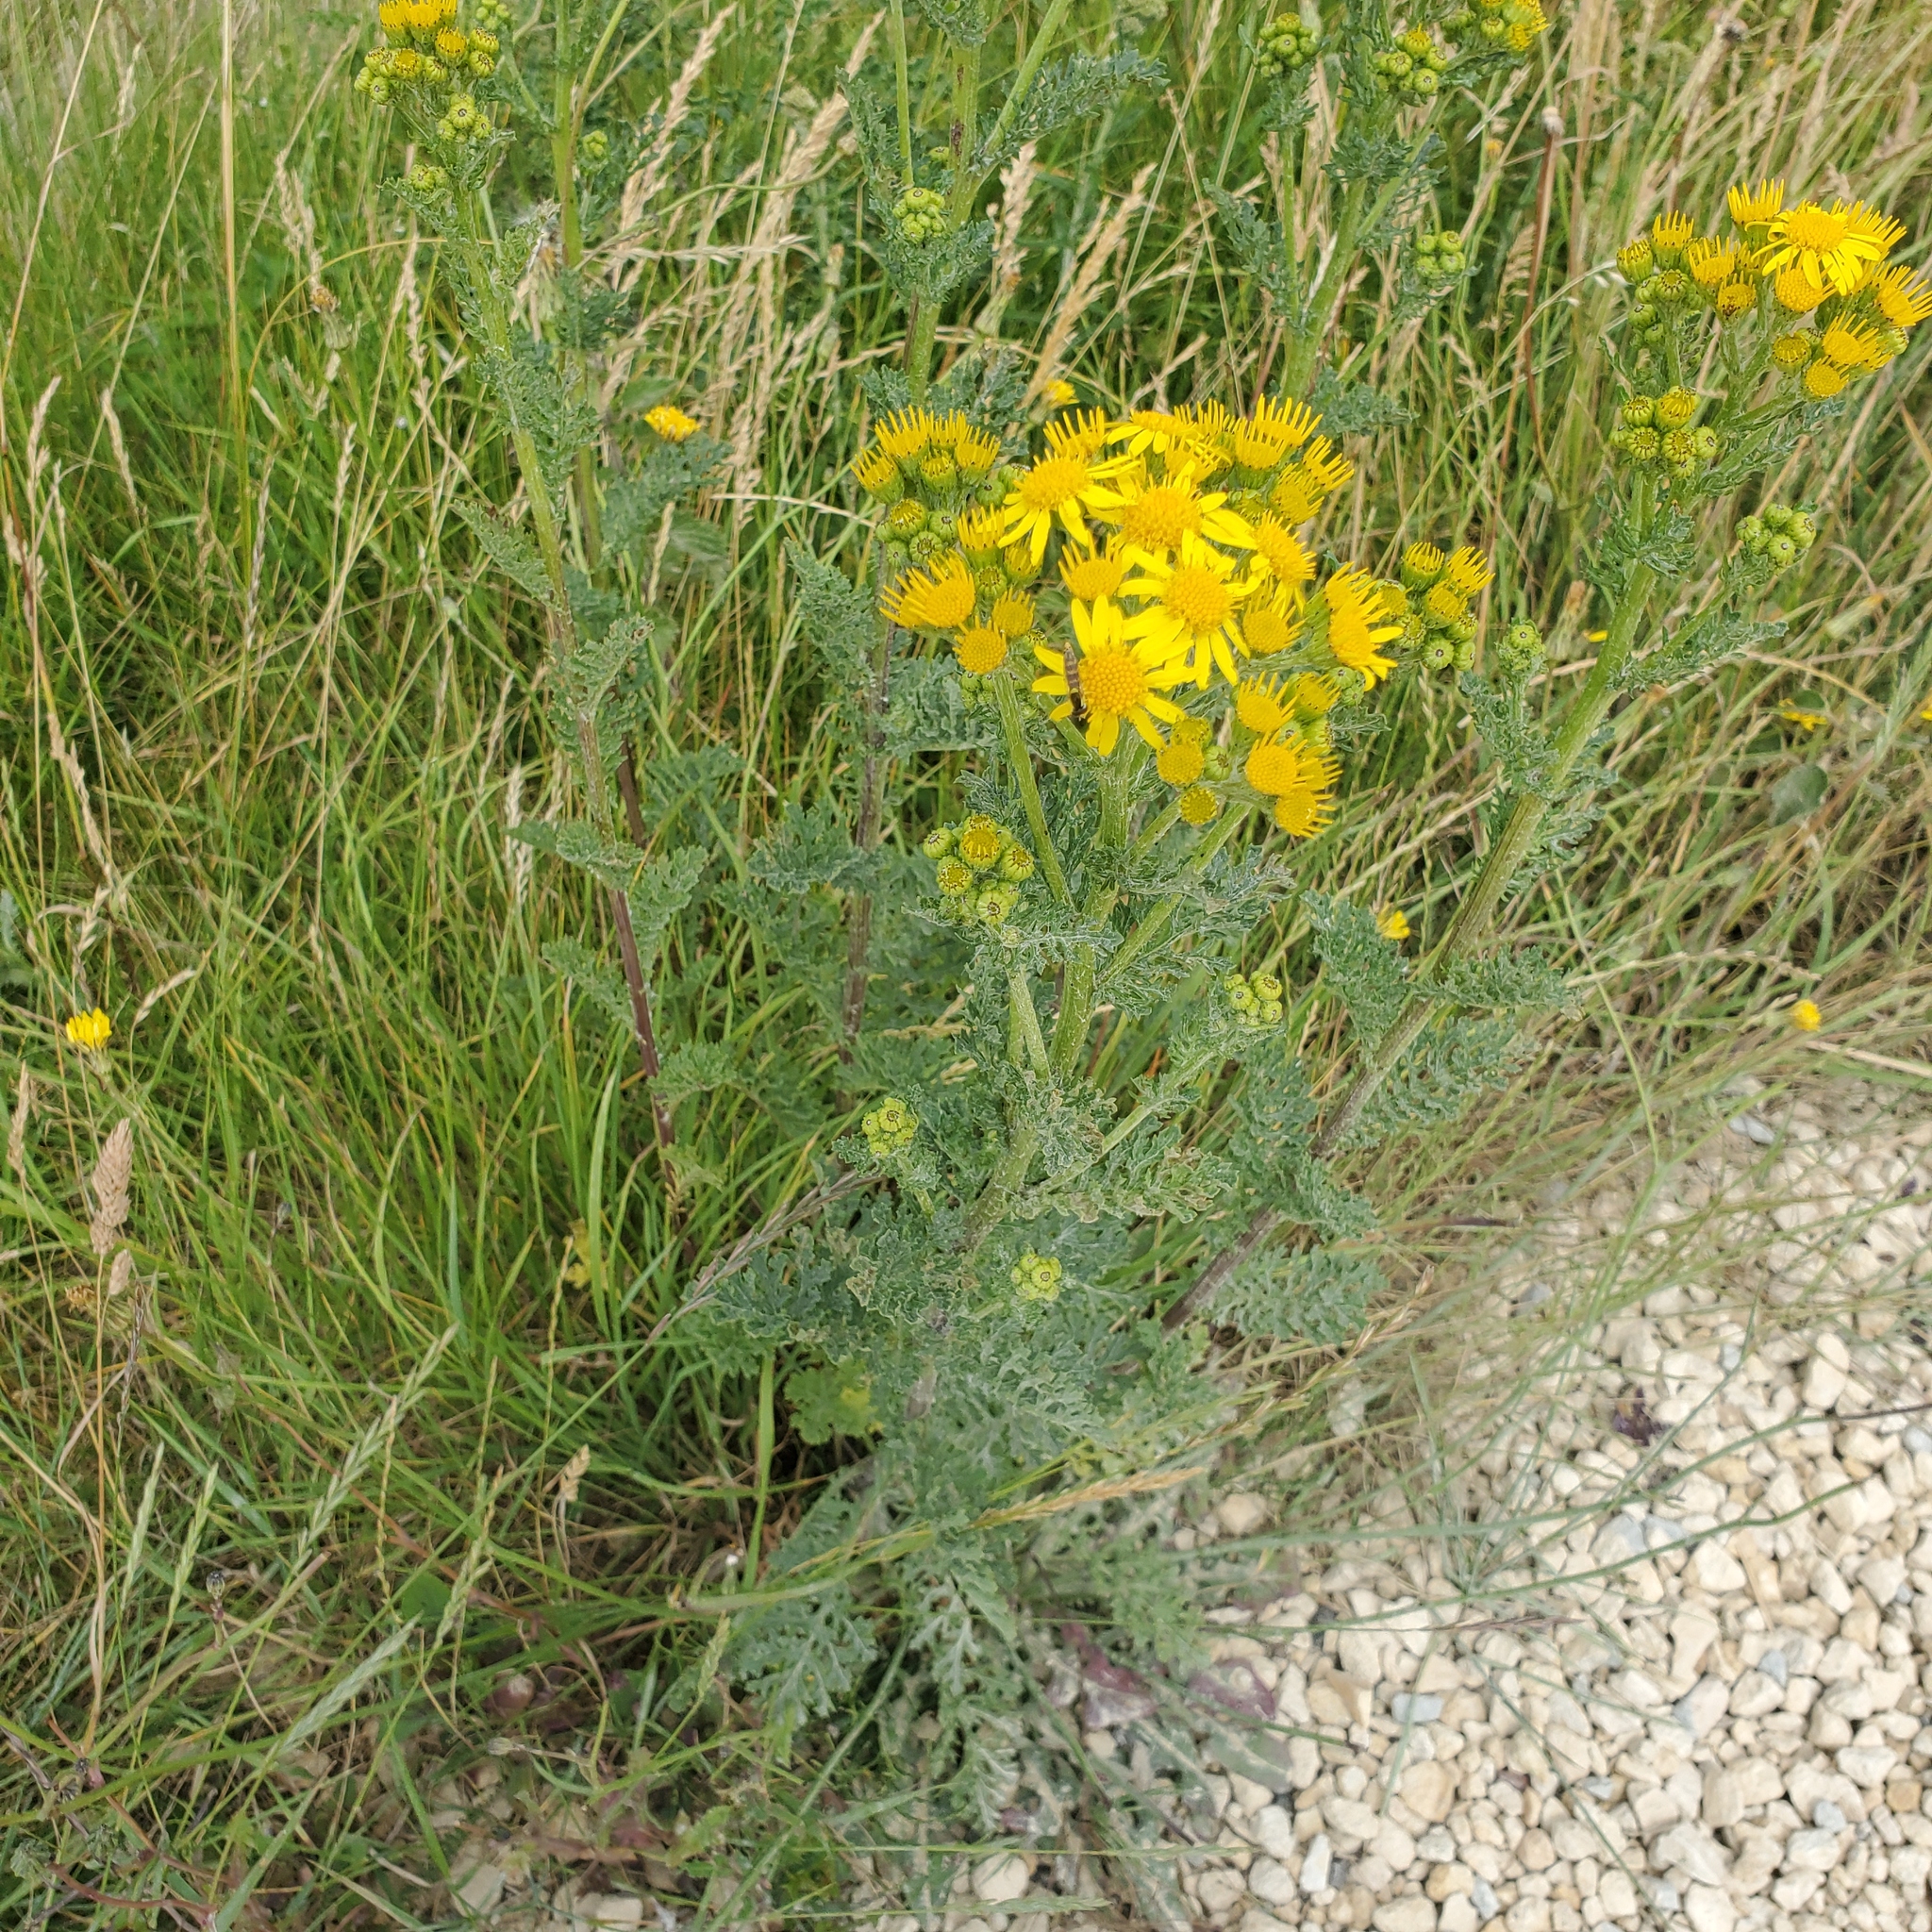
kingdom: Plantae
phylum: Tracheophyta
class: Magnoliopsida
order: Asterales
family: Asteraceae
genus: Jacobaea
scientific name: Jacobaea vulgaris
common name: Stinking willie
